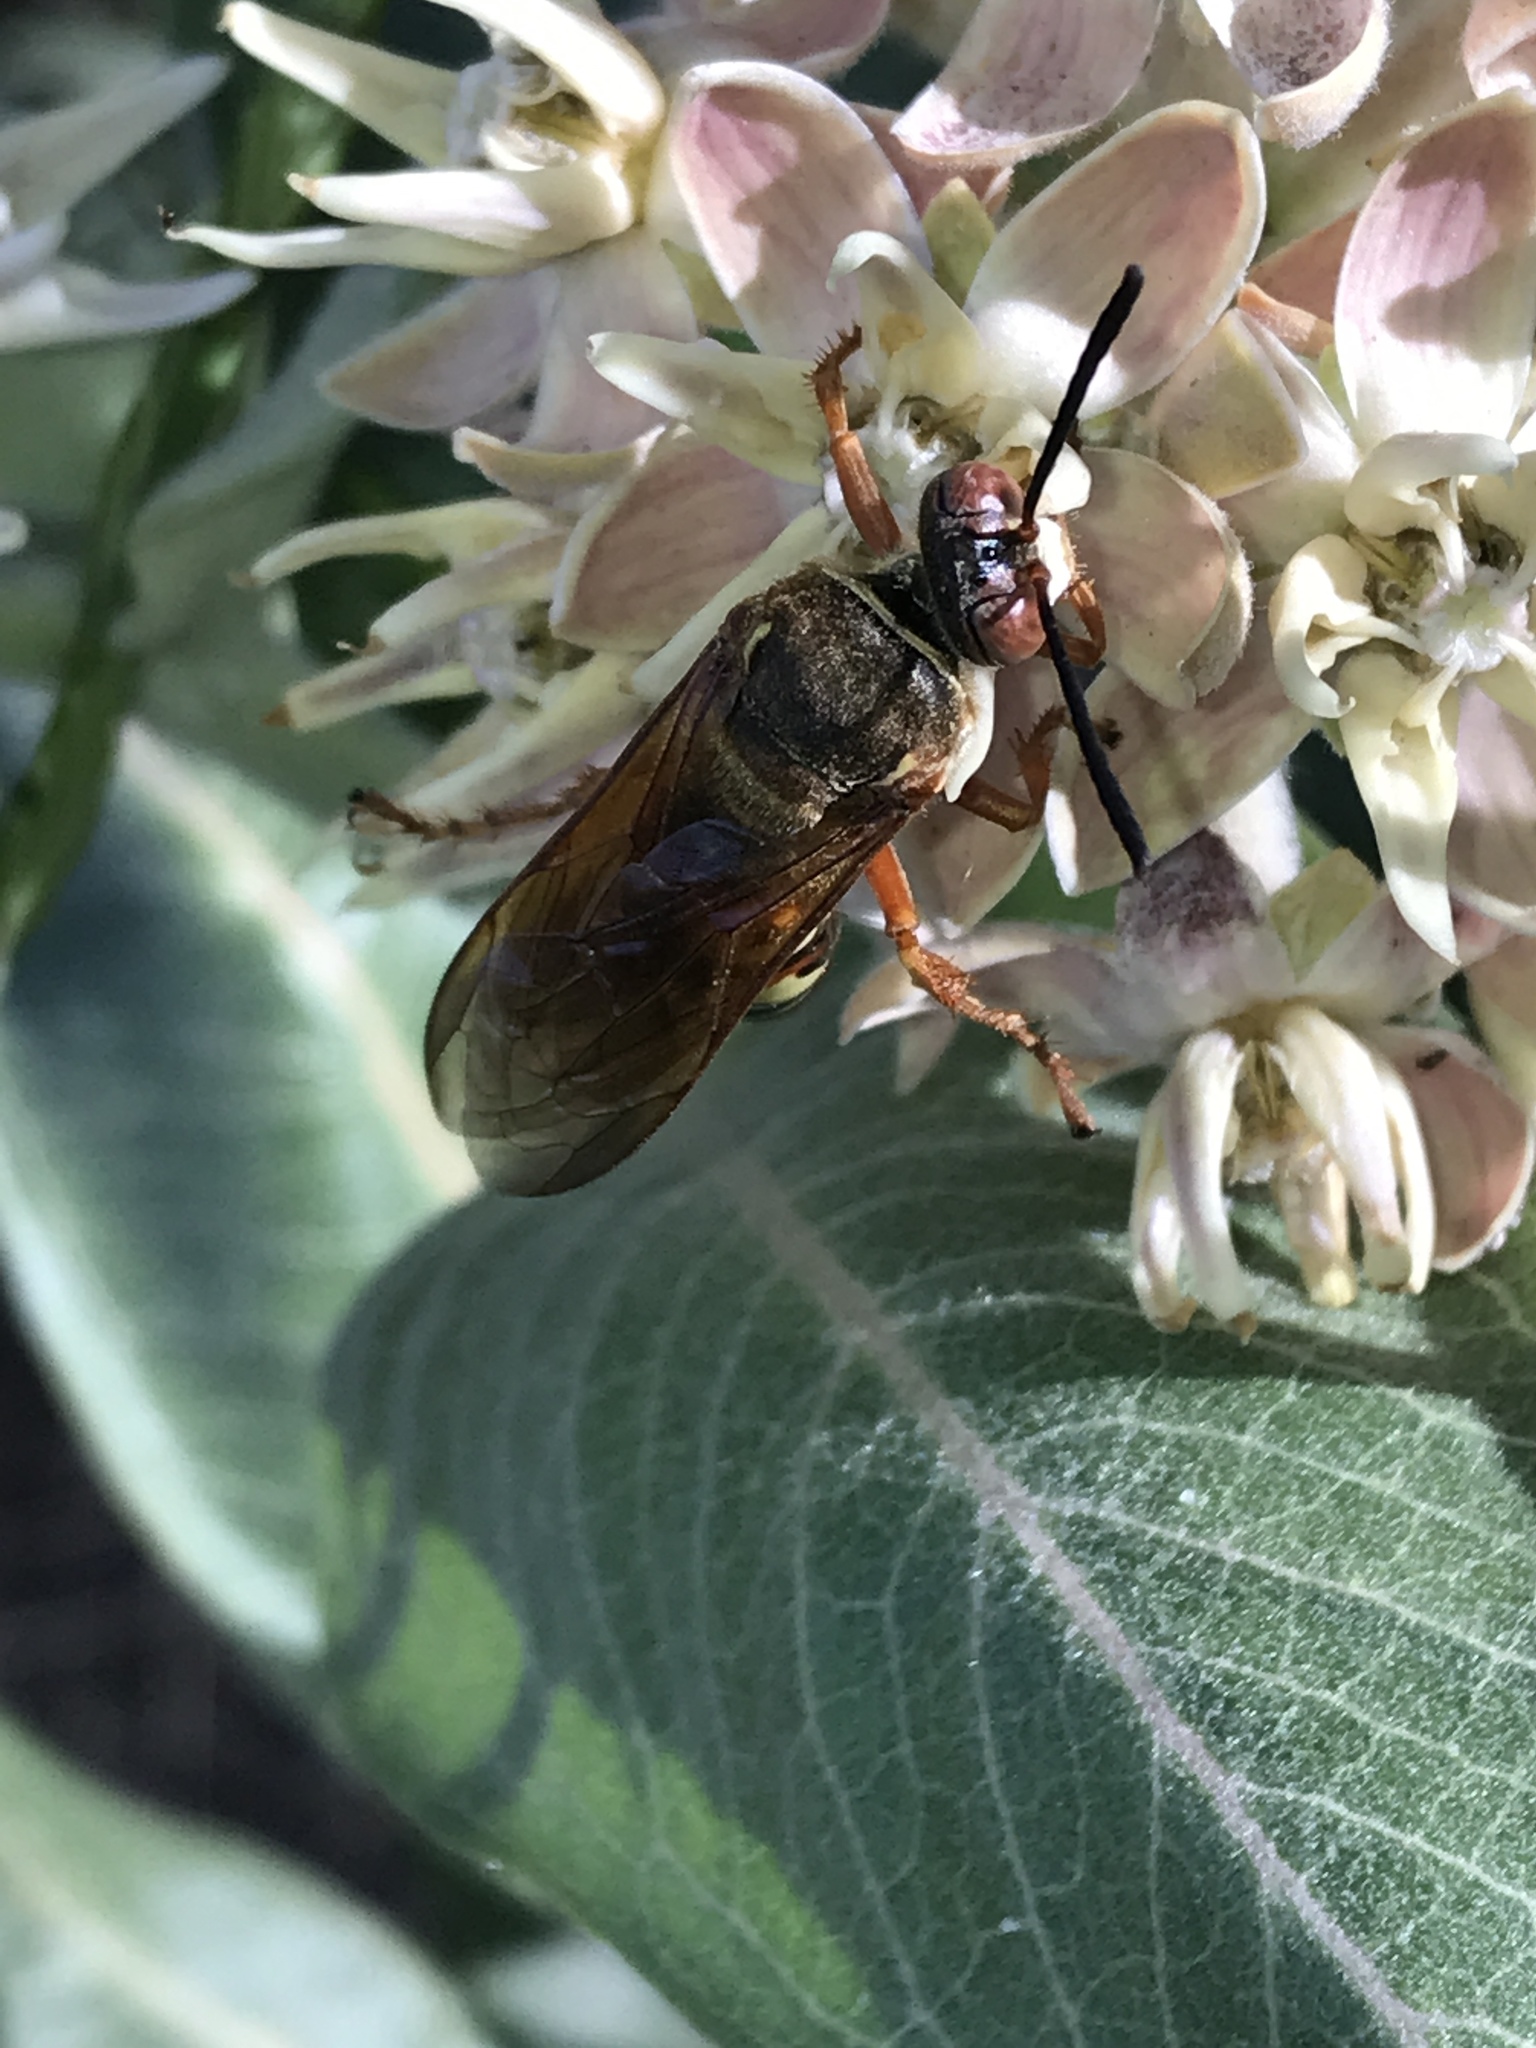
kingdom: Animalia
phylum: Arthropoda
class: Insecta
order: Hymenoptera
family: Crabronidae
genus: Sphecius
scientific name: Sphecius grandis
